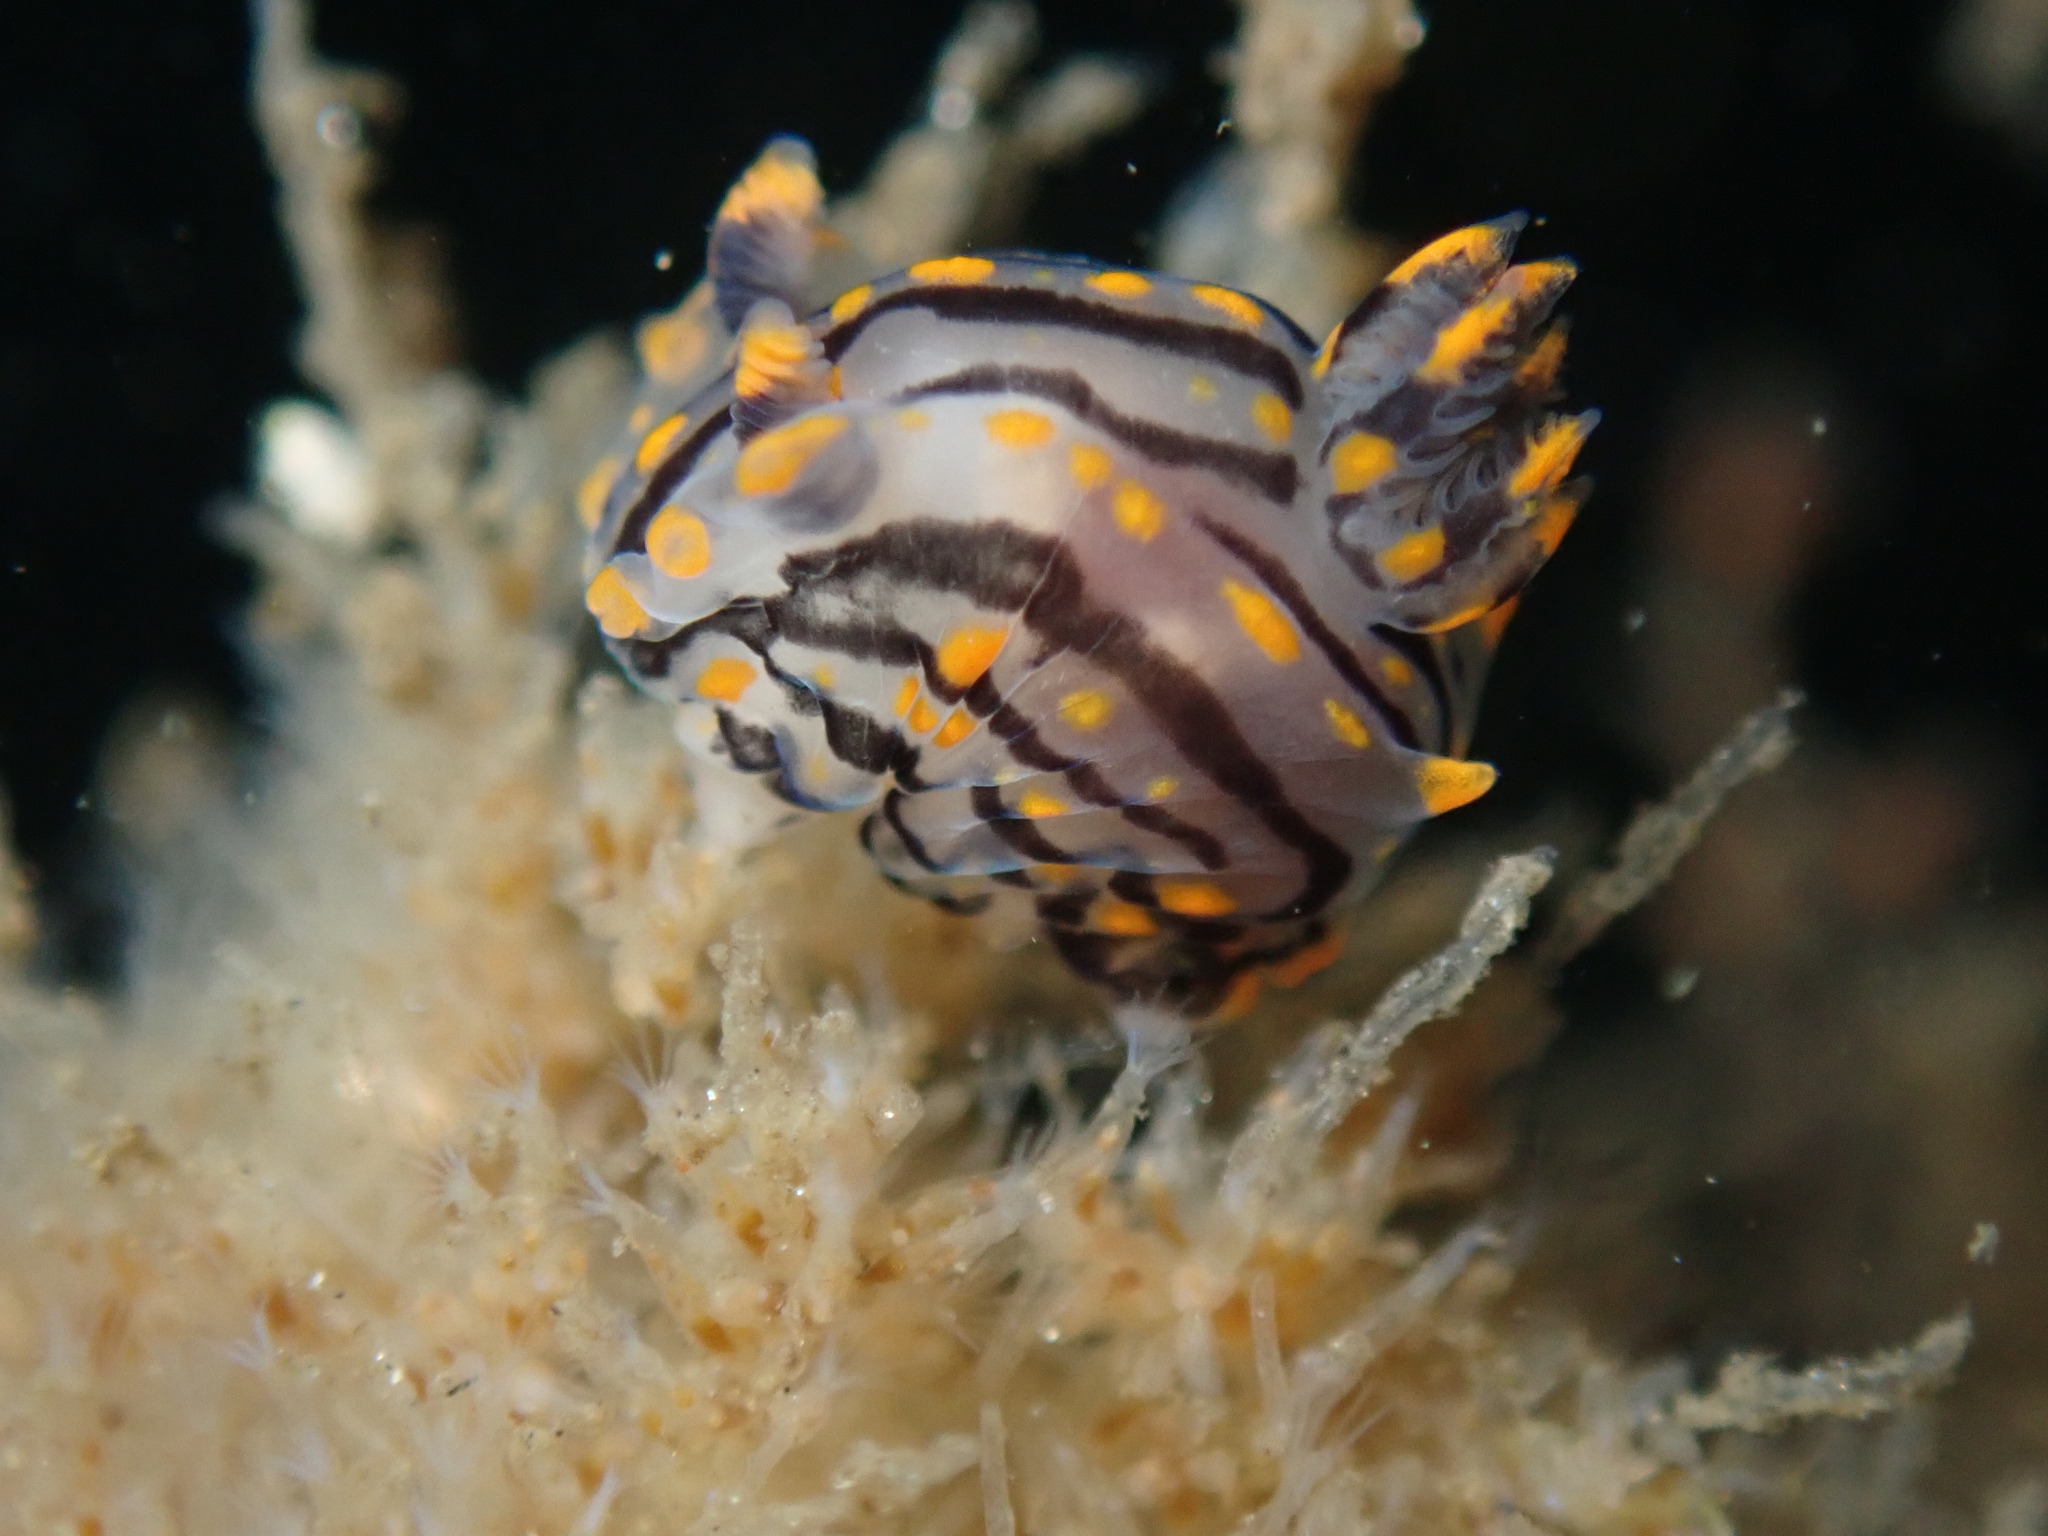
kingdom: Animalia
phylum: Mollusca
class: Gastropoda
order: Nudibranchia
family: Polyceridae
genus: Polycera
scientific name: Polycera atra
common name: Orange-spike polycera
